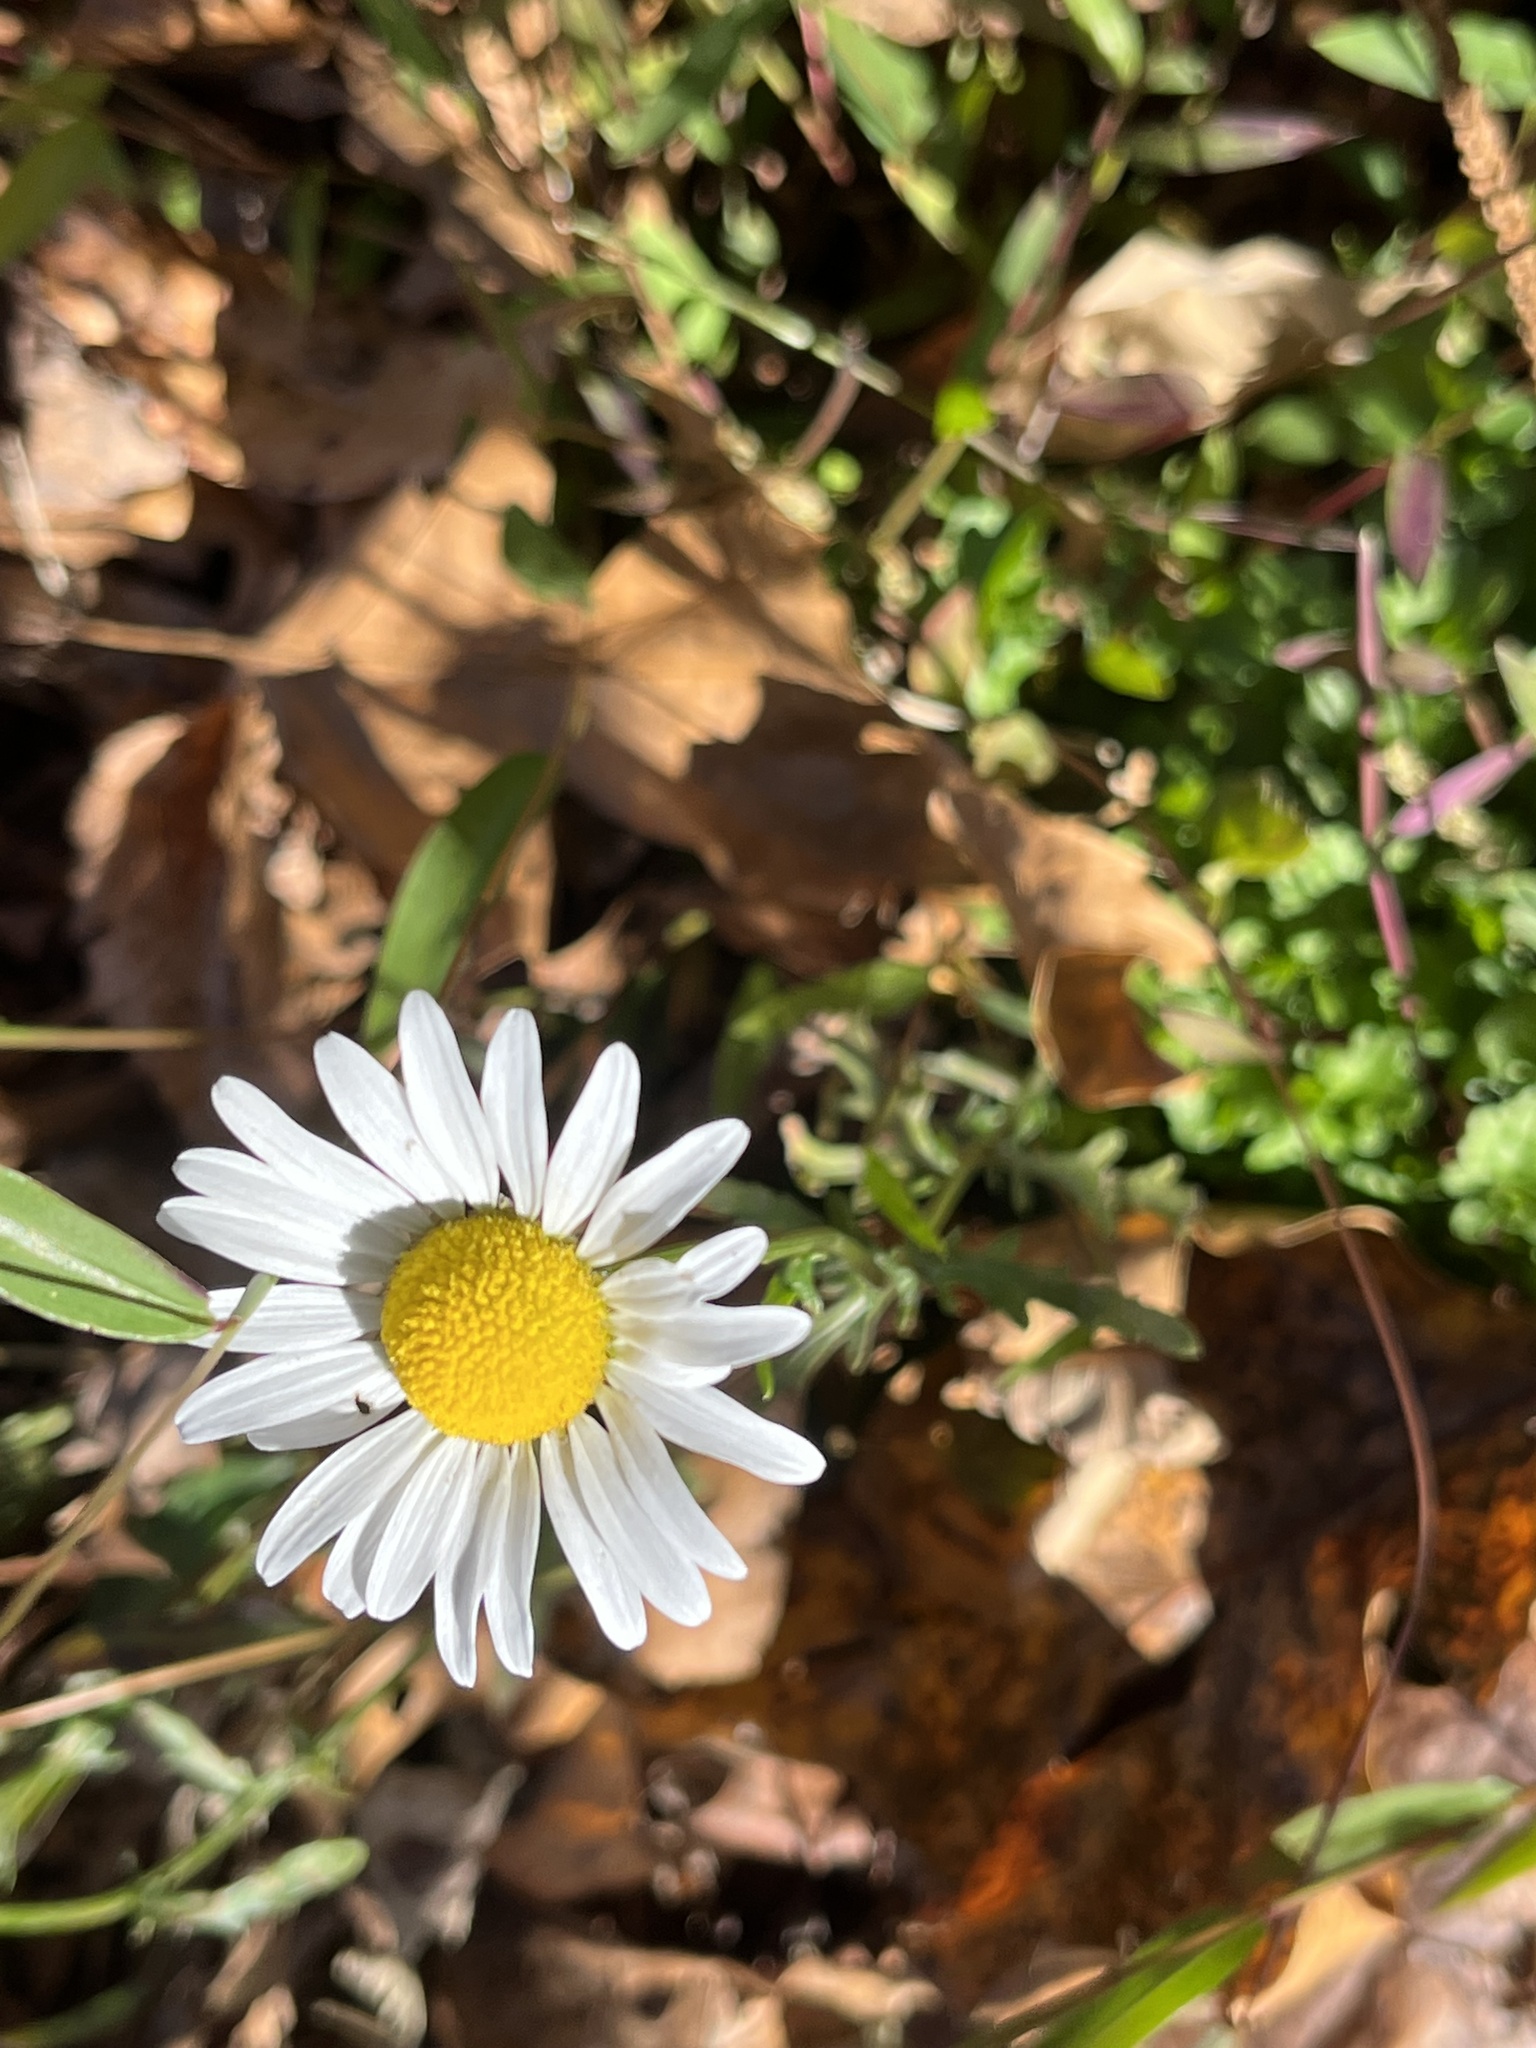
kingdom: Plantae
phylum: Tracheophyta
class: Magnoliopsida
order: Asterales
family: Asteraceae
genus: Leucanthemum
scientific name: Leucanthemum vulgare
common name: Oxeye daisy
